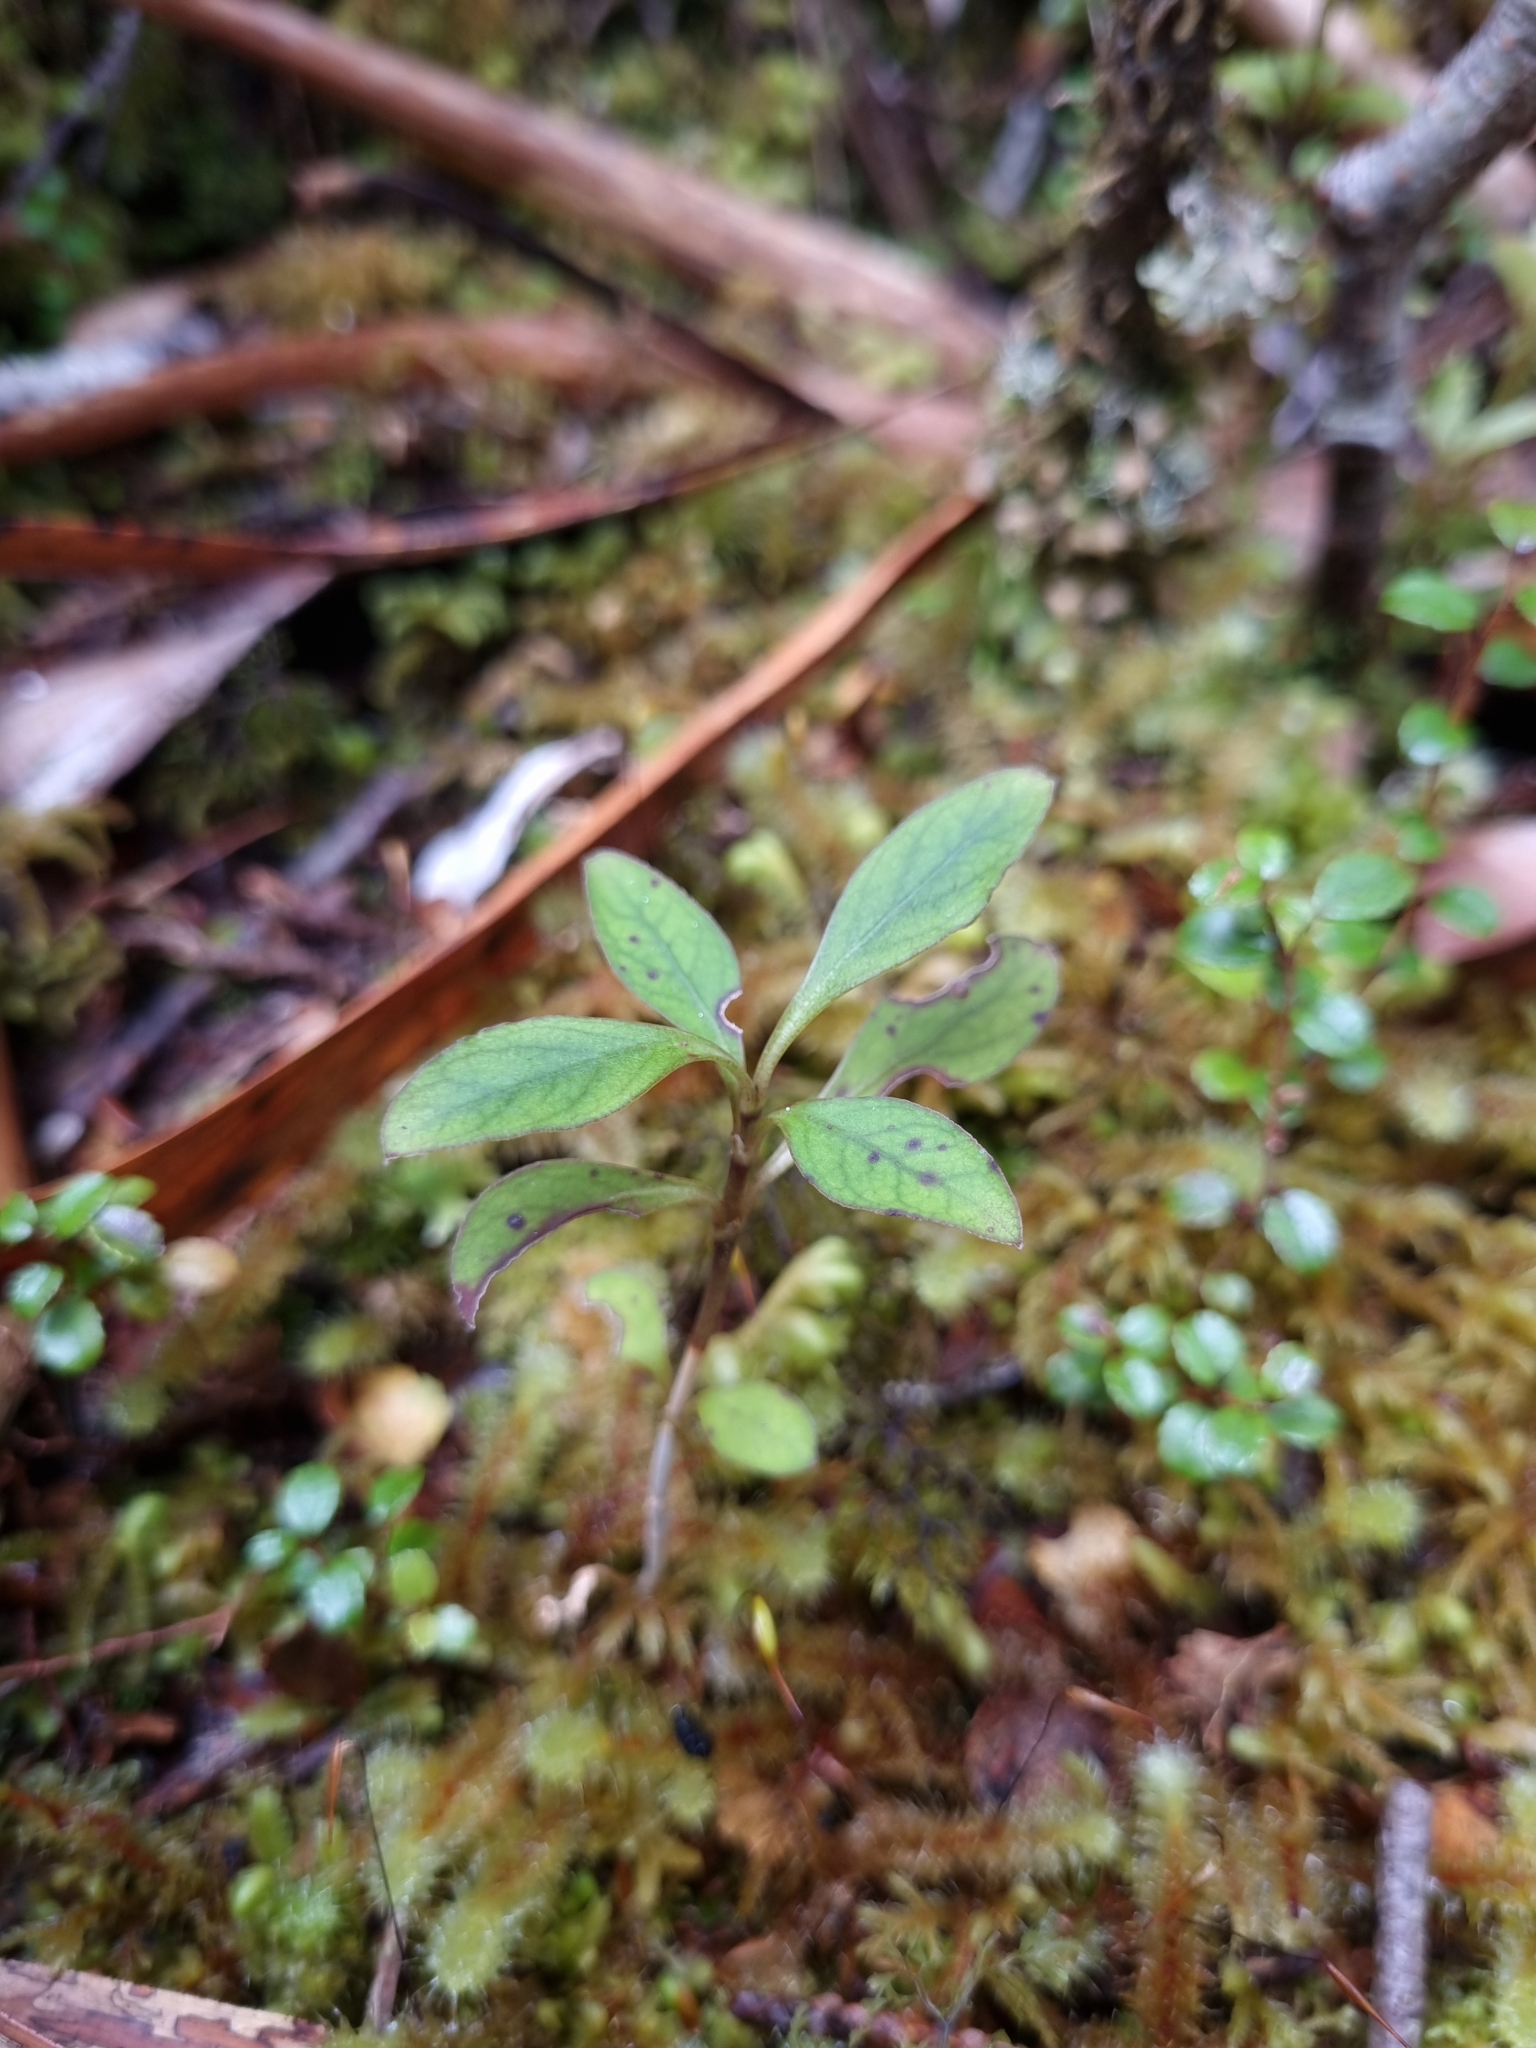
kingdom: Plantae
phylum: Tracheophyta
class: Magnoliopsida
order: Gentianales
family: Rubiaceae
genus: Coprosma
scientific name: Coprosma foetidissima
